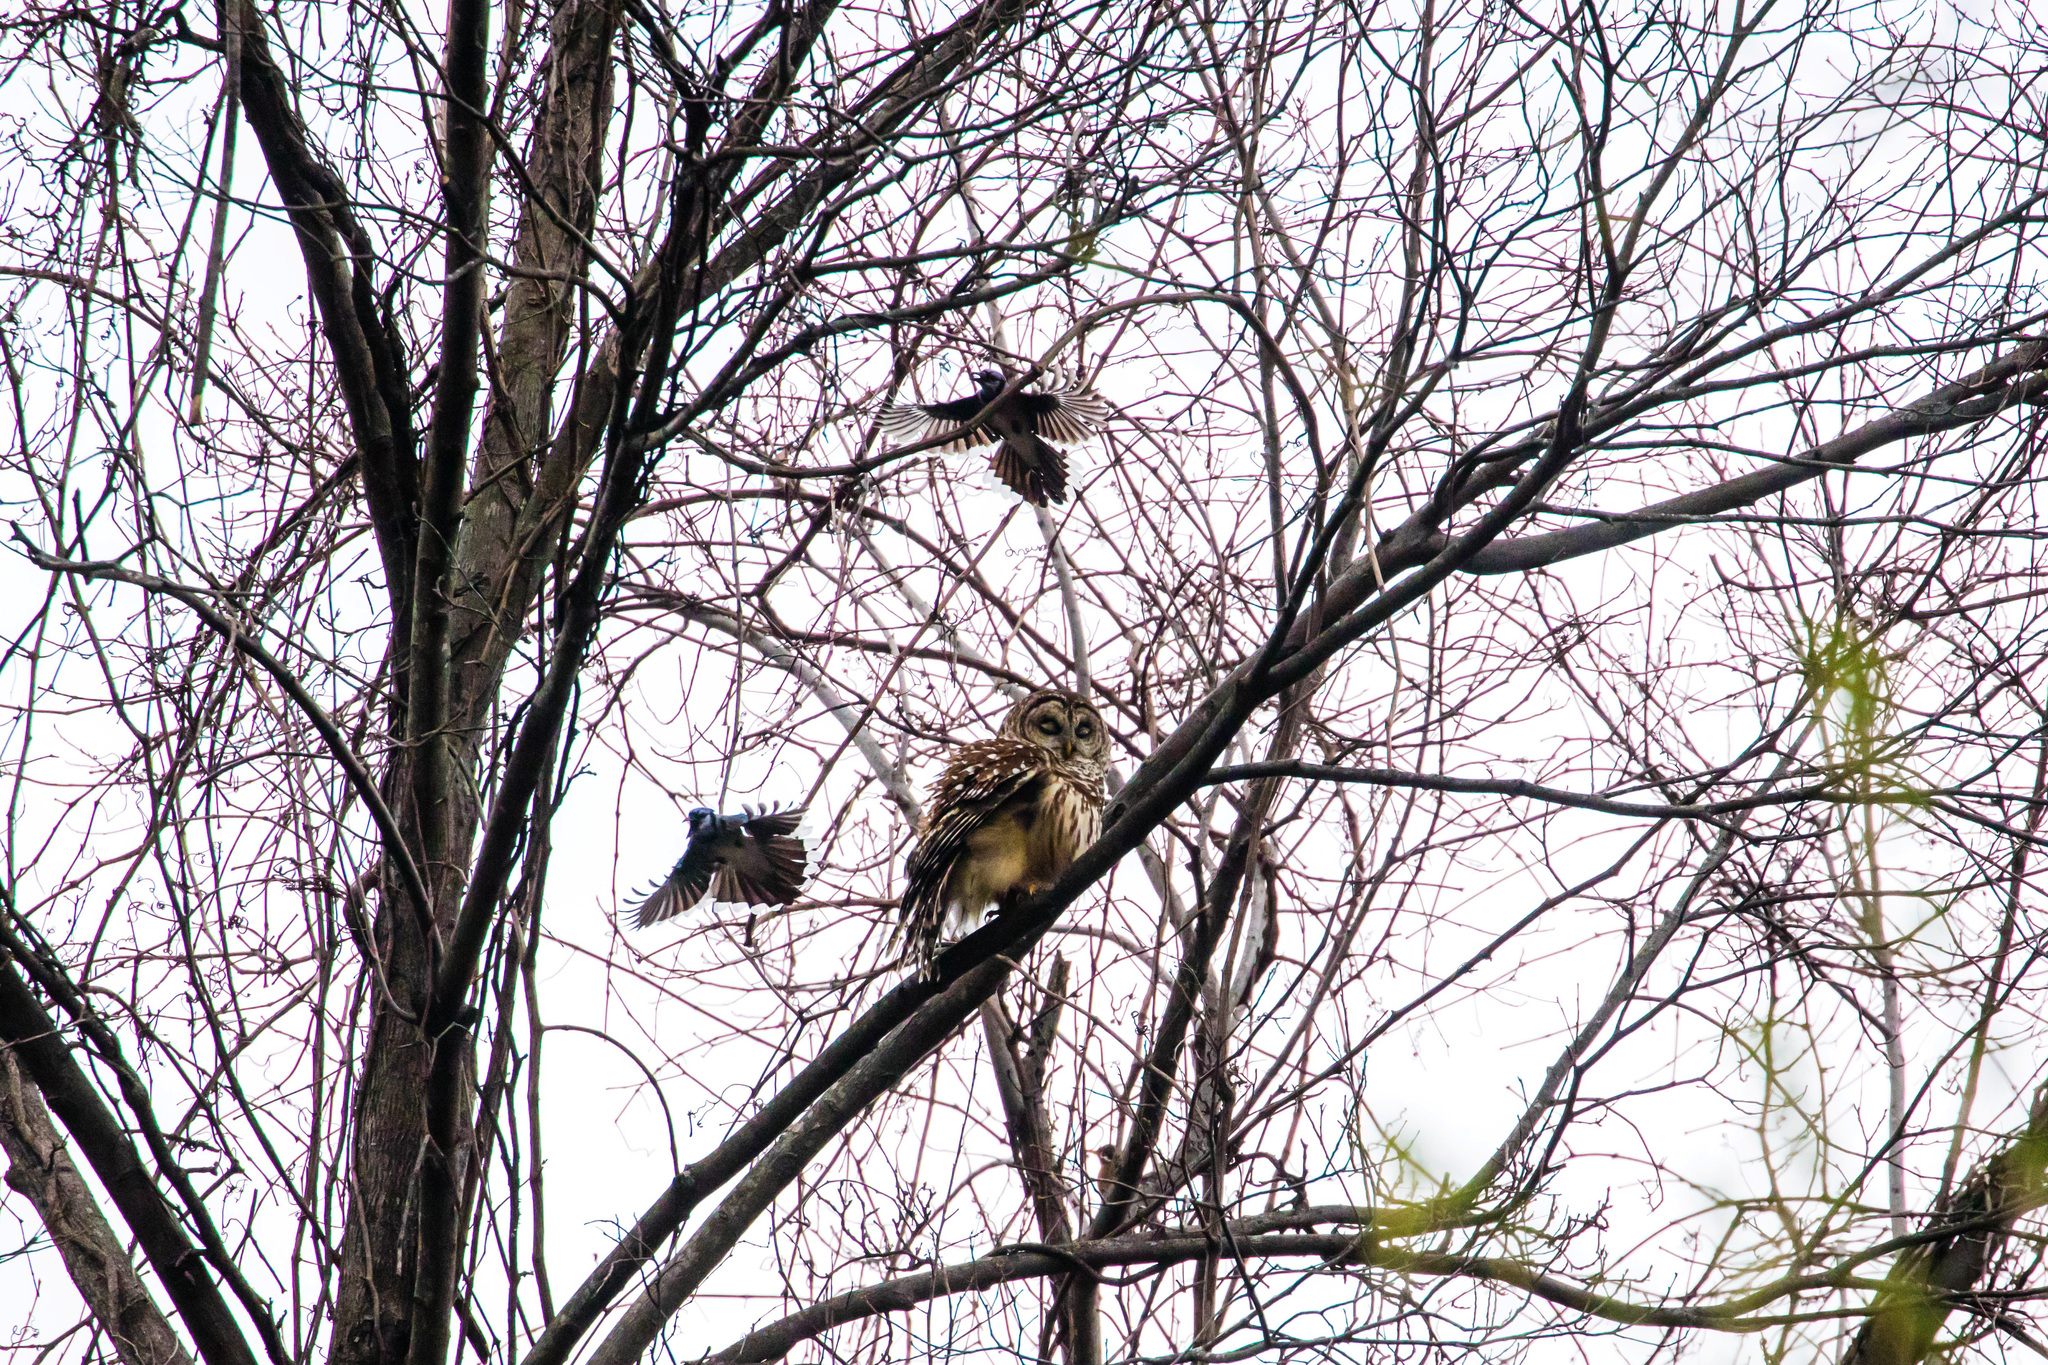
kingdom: Animalia
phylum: Chordata
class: Aves
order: Strigiformes
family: Strigidae
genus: Strix
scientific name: Strix varia
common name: Barred owl
